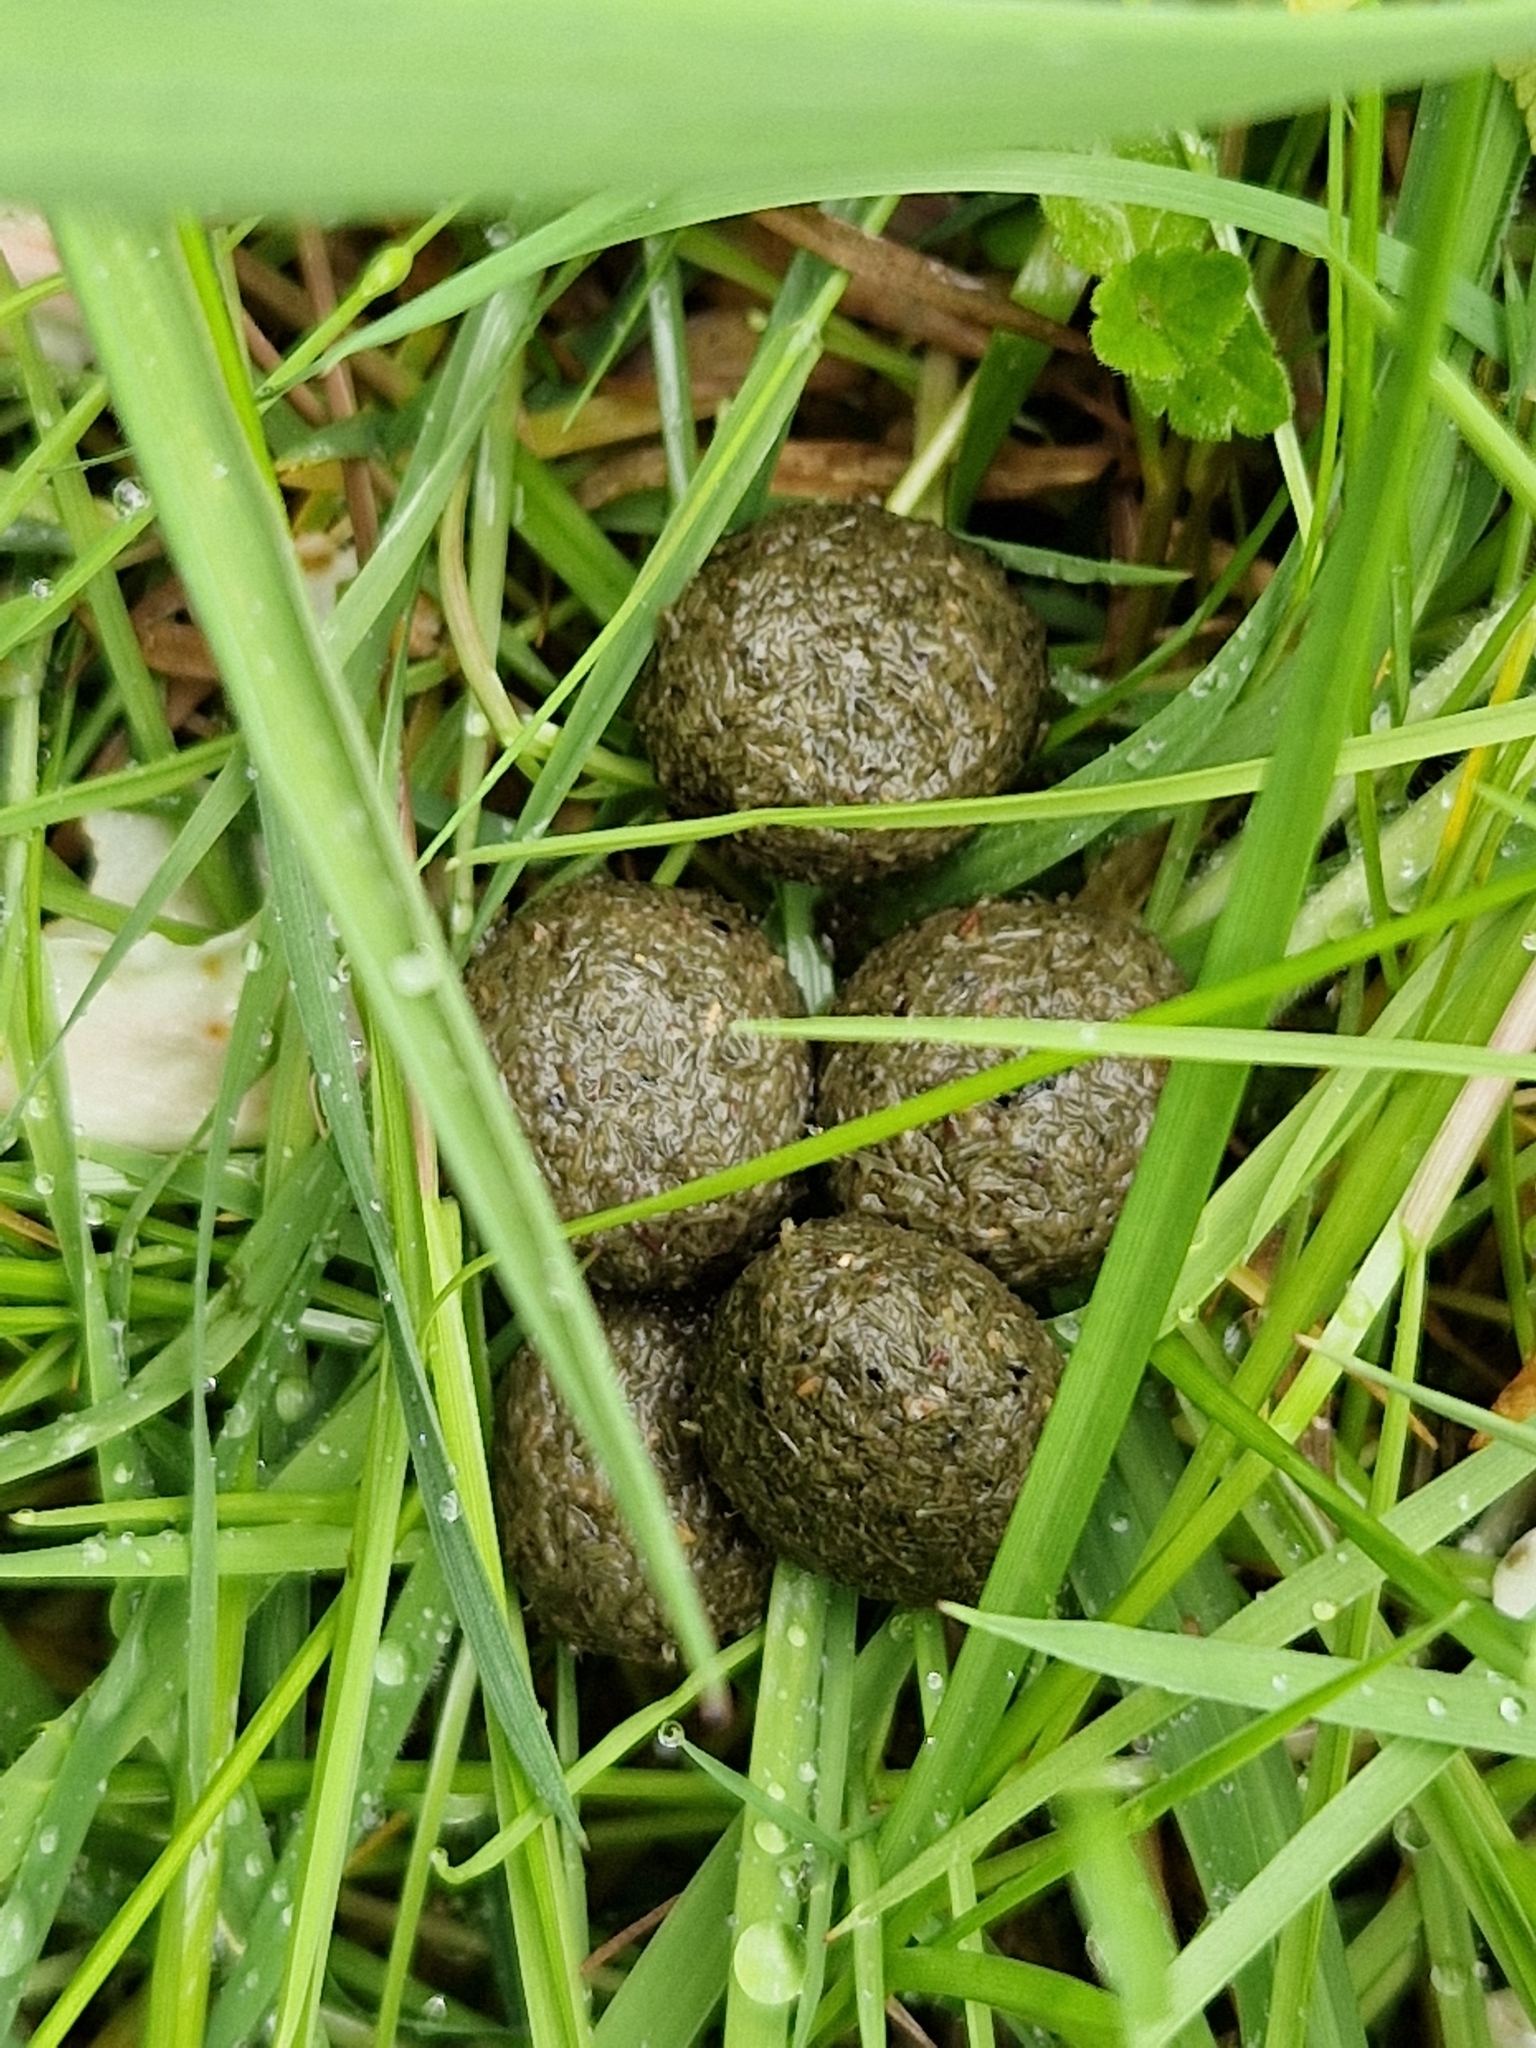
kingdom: Animalia
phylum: Chordata
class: Mammalia
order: Lagomorpha
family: Leporidae
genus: Lepus
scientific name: Lepus timidus
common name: Mountain hare
